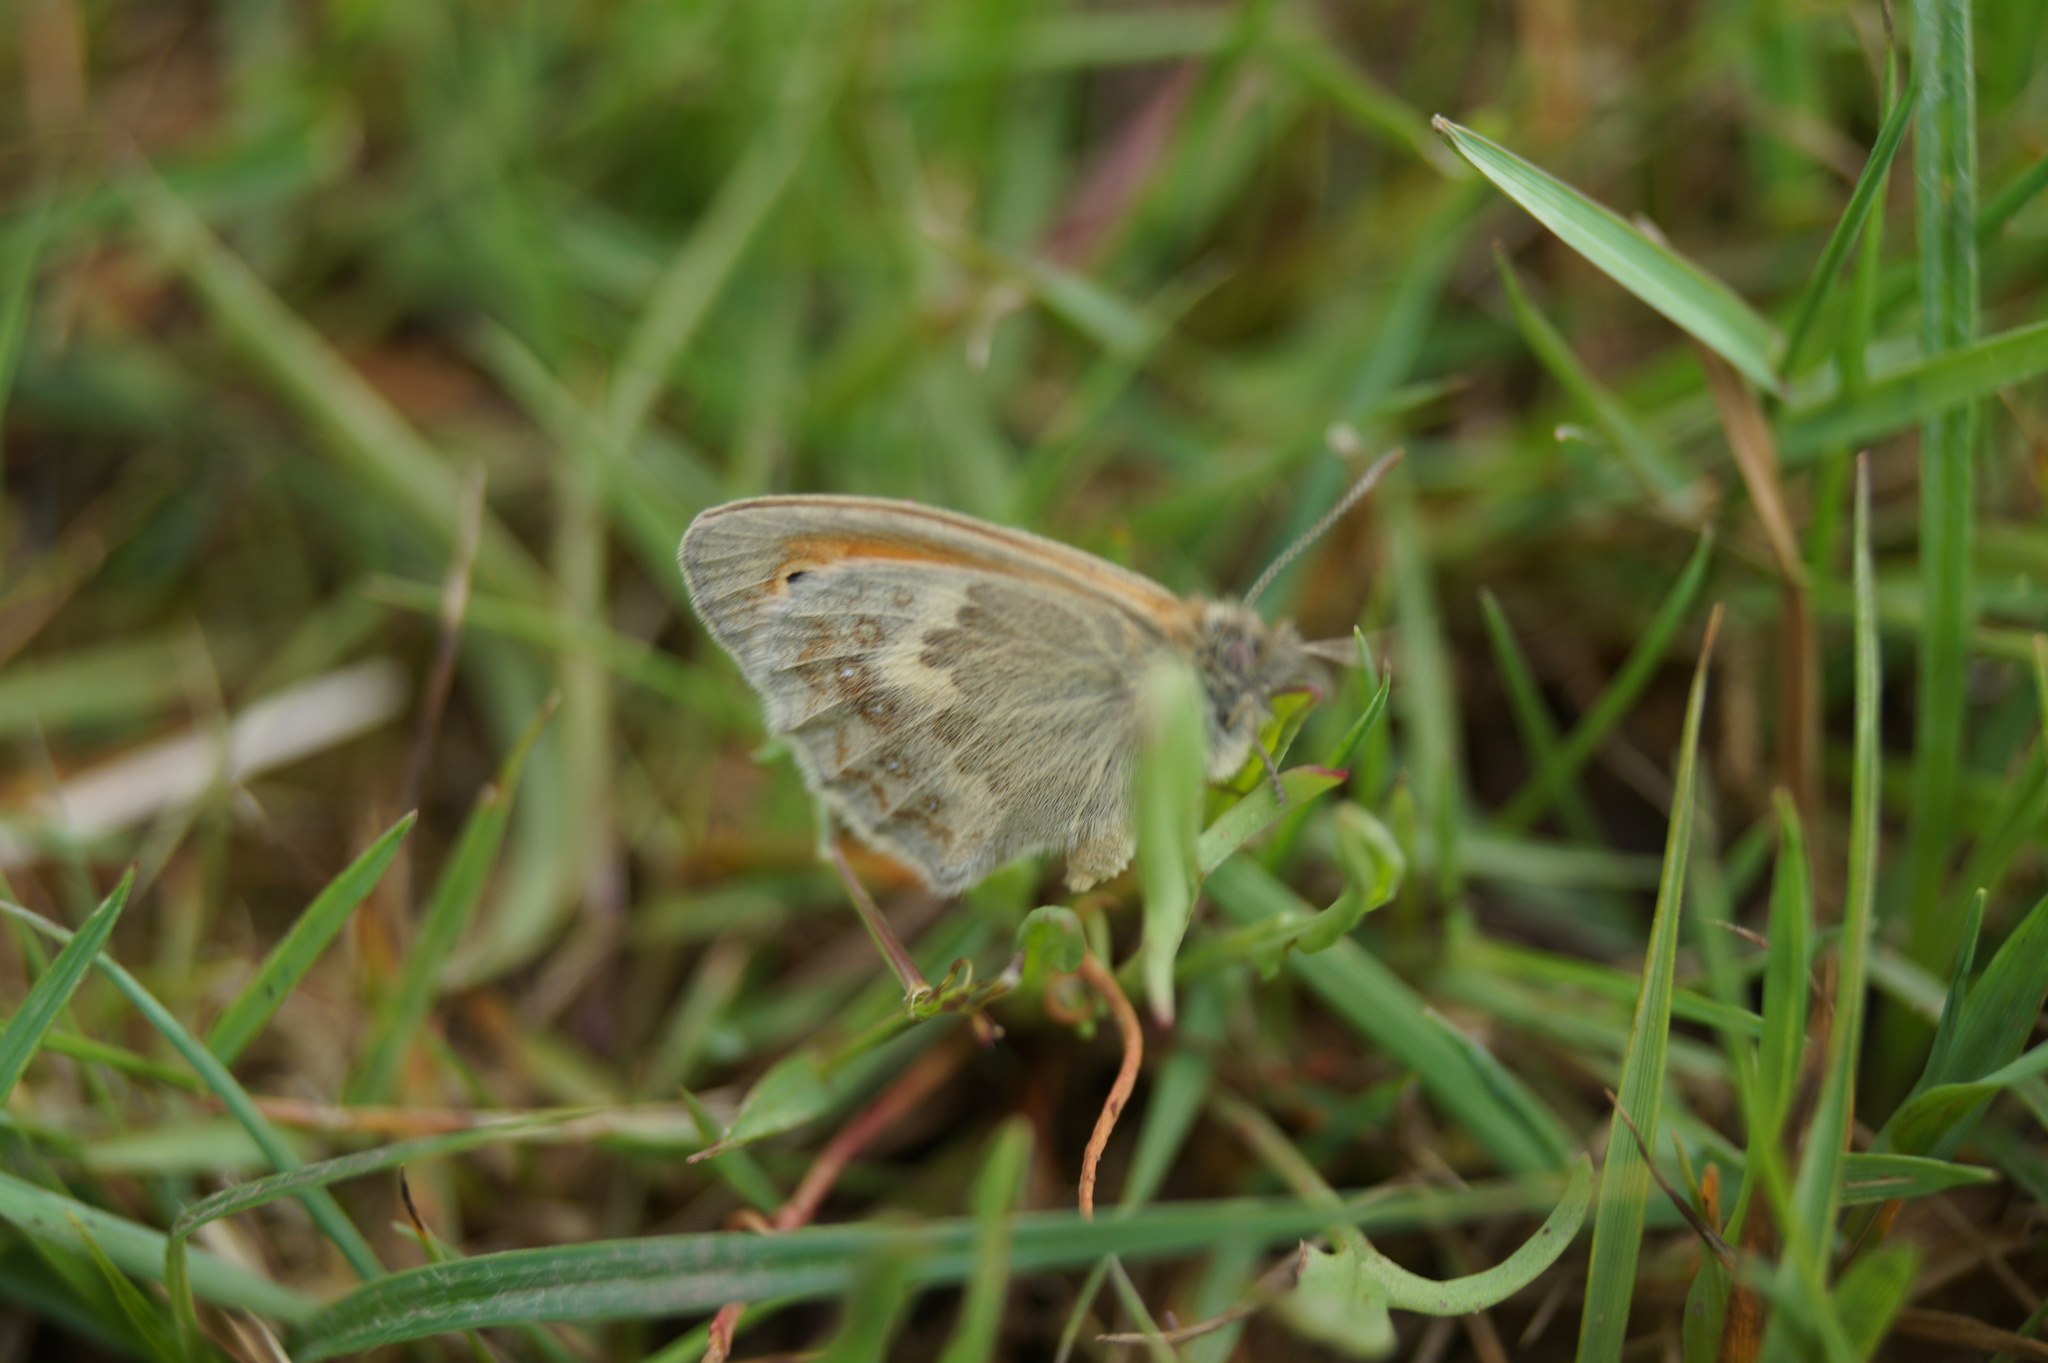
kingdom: Animalia
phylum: Arthropoda
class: Insecta
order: Lepidoptera
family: Nymphalidae
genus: Coenonympha
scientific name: Coenonympha pamphilus
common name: Small heath
